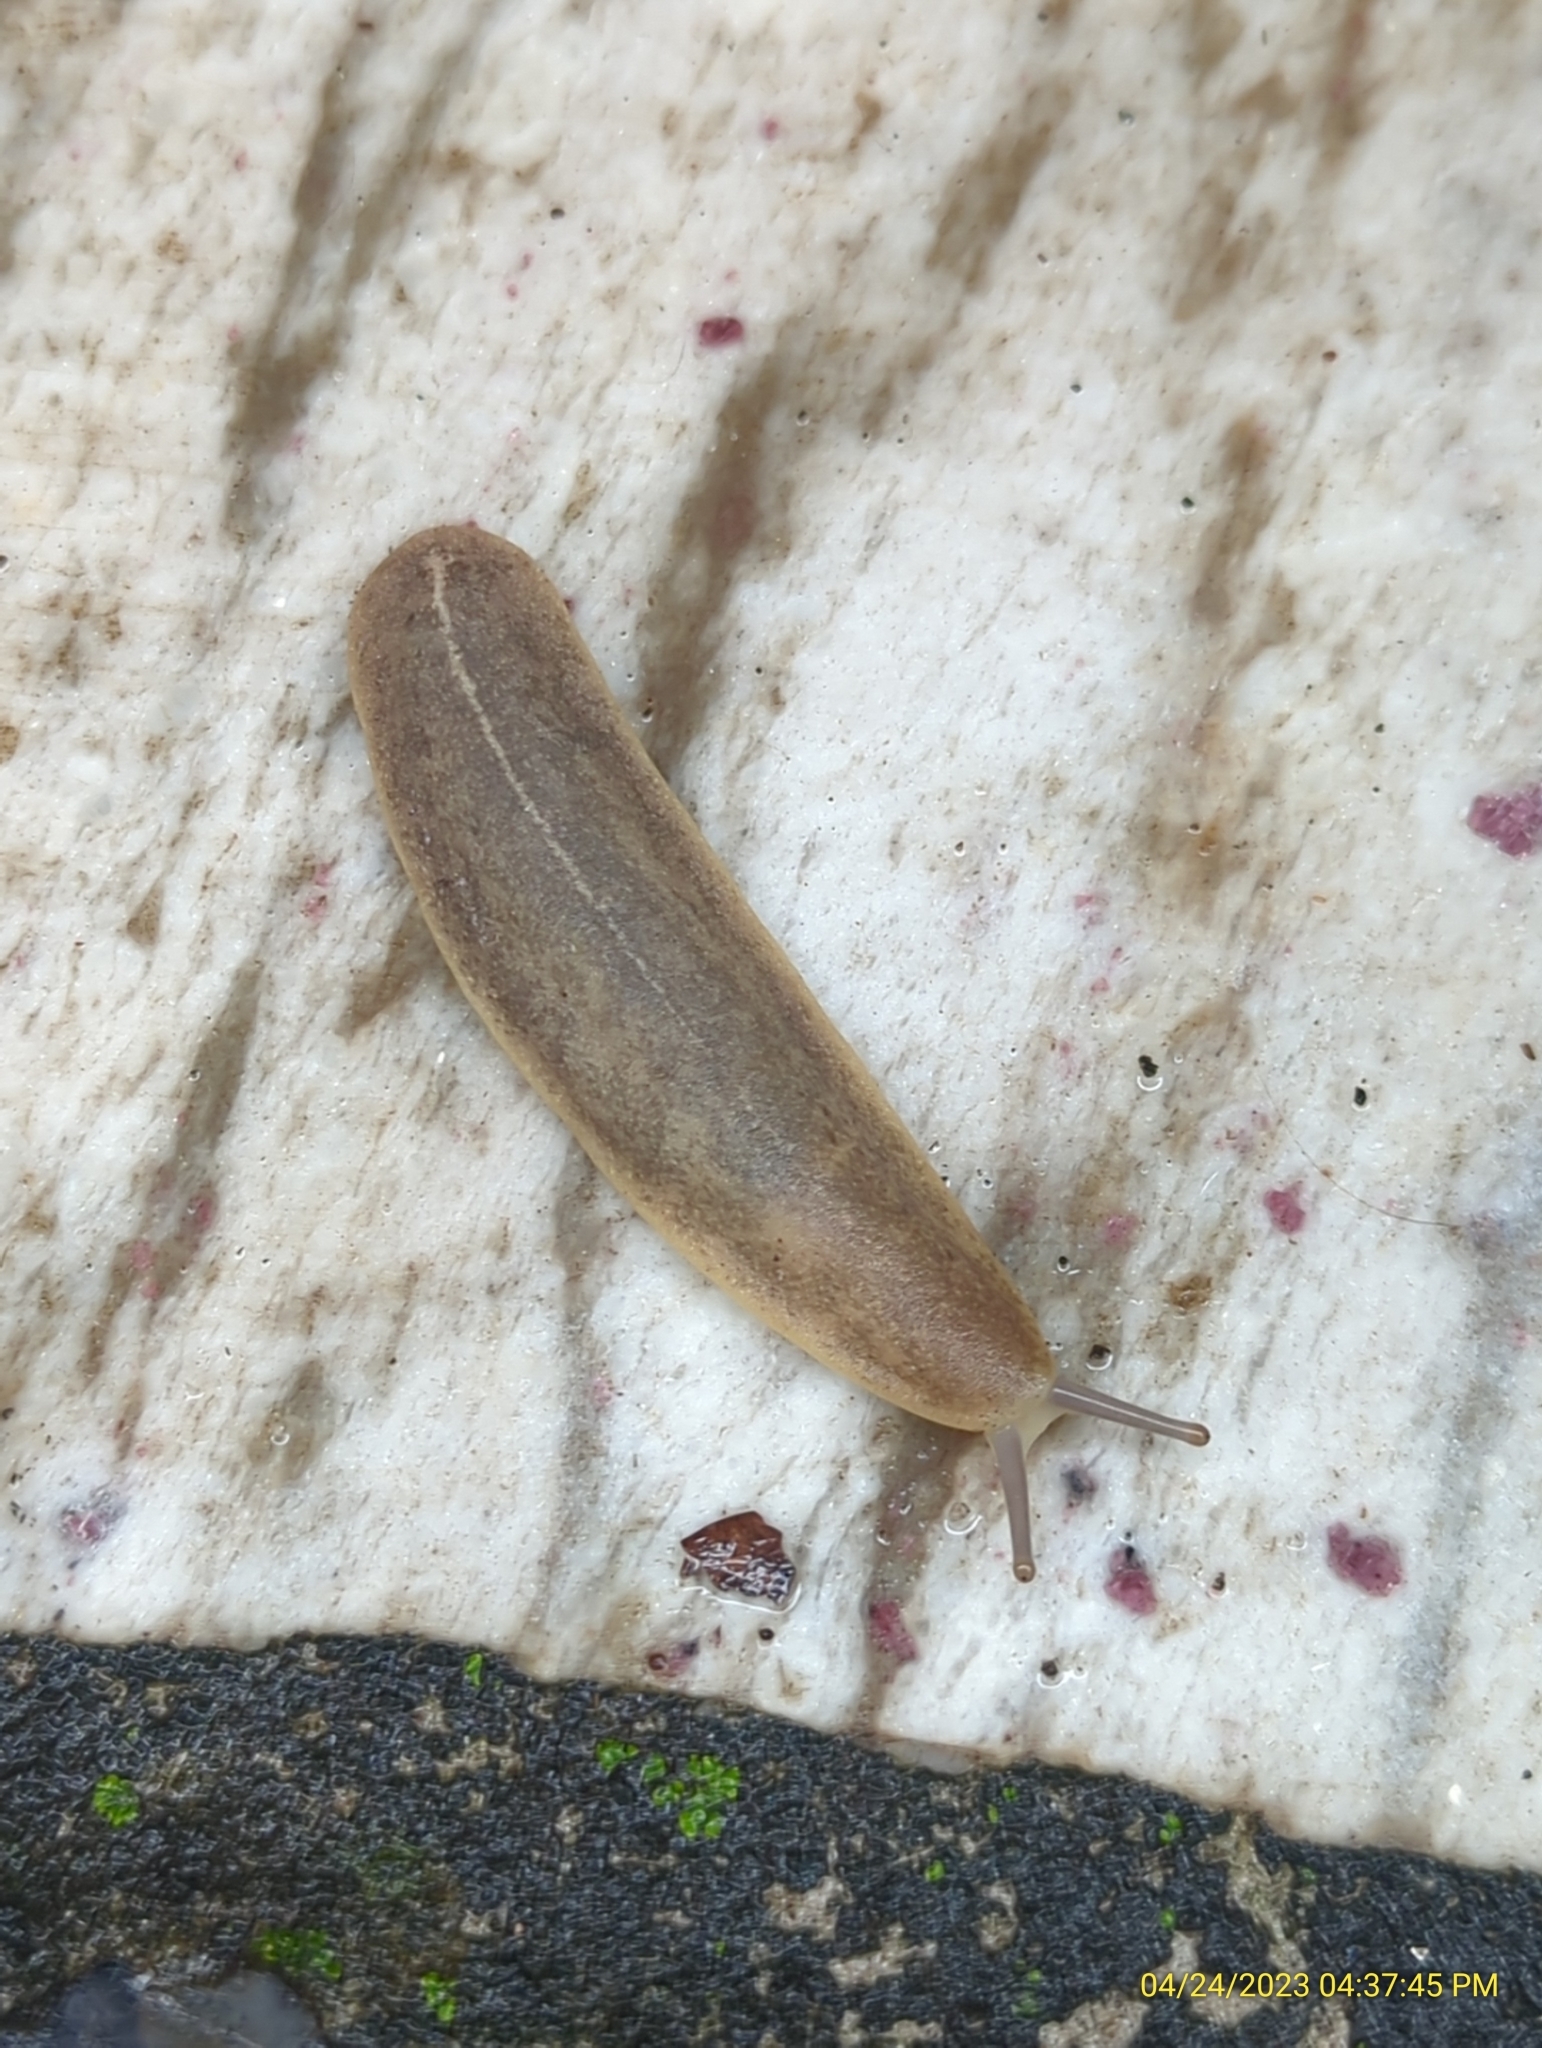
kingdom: Animalia
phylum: Mollusca
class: Gastropoda
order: Systellommatophora
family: Veronicellidae
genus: Leidyula
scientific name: Leidyula floridana
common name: Florida leatherleaf
